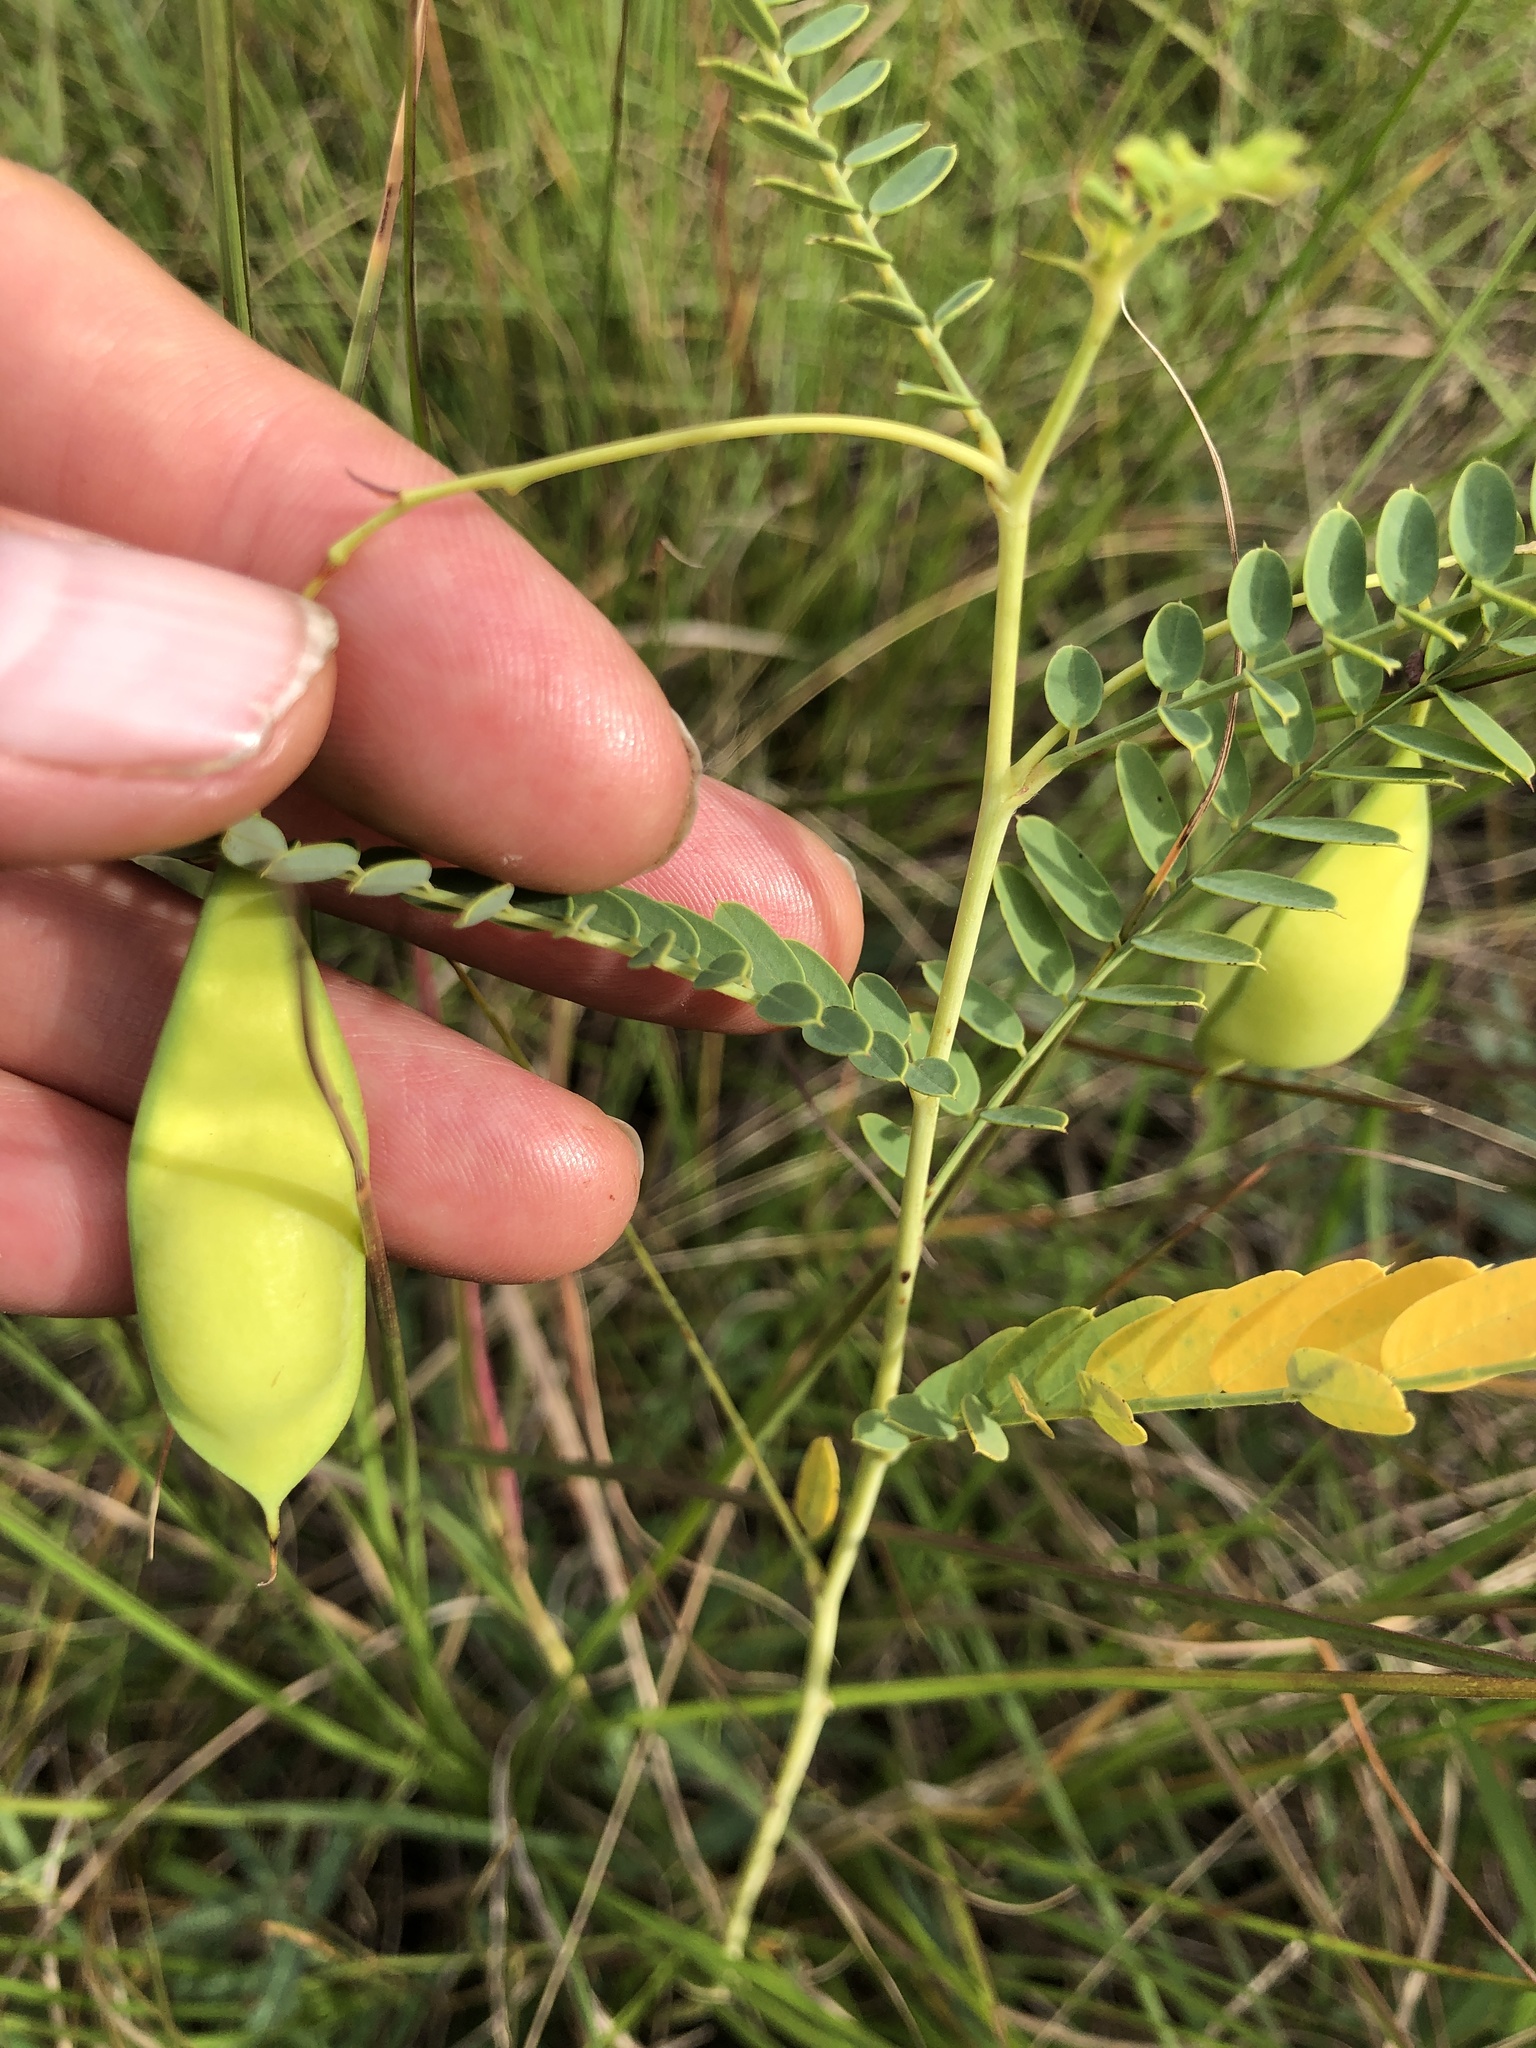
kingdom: Plantae
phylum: Tracheophyta
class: Magnoliopsida
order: Fabales
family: Fabaceae
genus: Sesbania
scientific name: Sesbania vesicaria
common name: Bagpod
